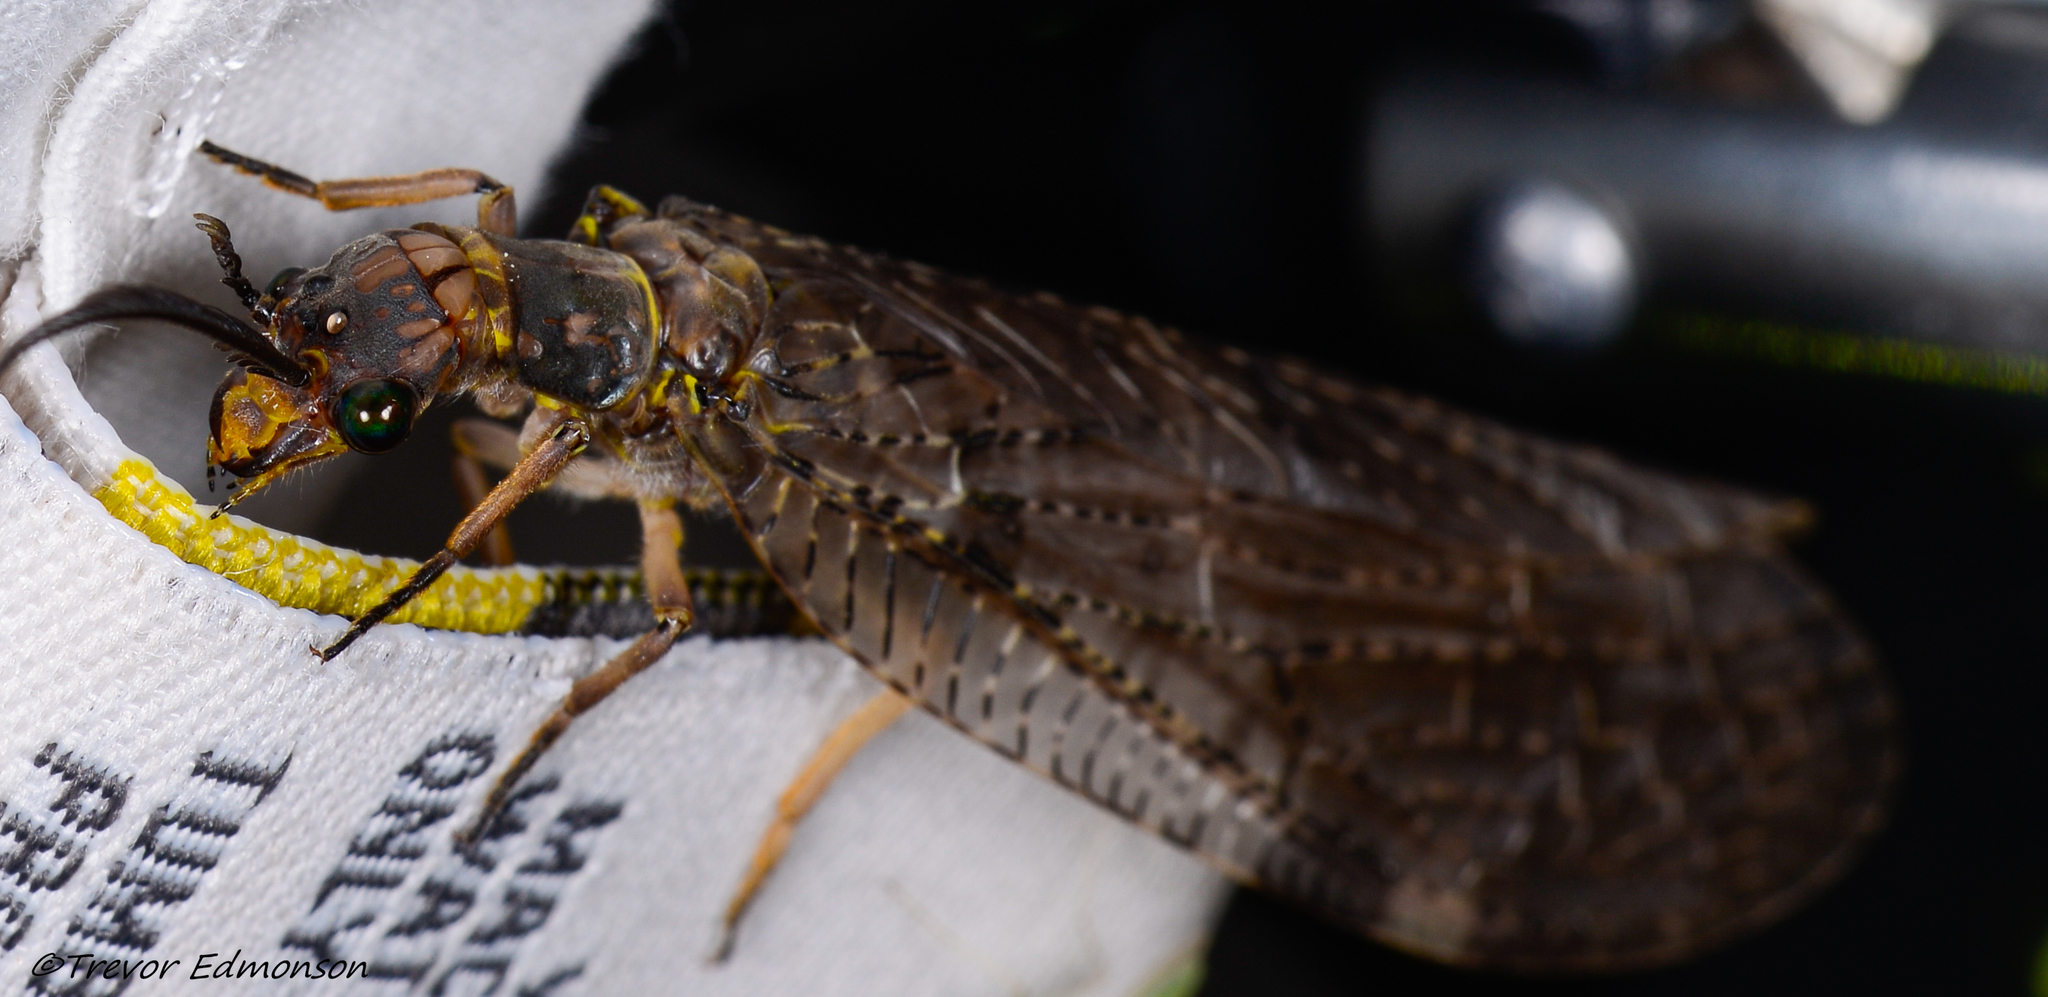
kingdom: Animalia
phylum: Arthropoda
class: Insecta
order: Megaloptera
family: Corydalidae
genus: Chauliodes
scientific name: Chauliodes pectinicornis
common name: Summer fishfly
